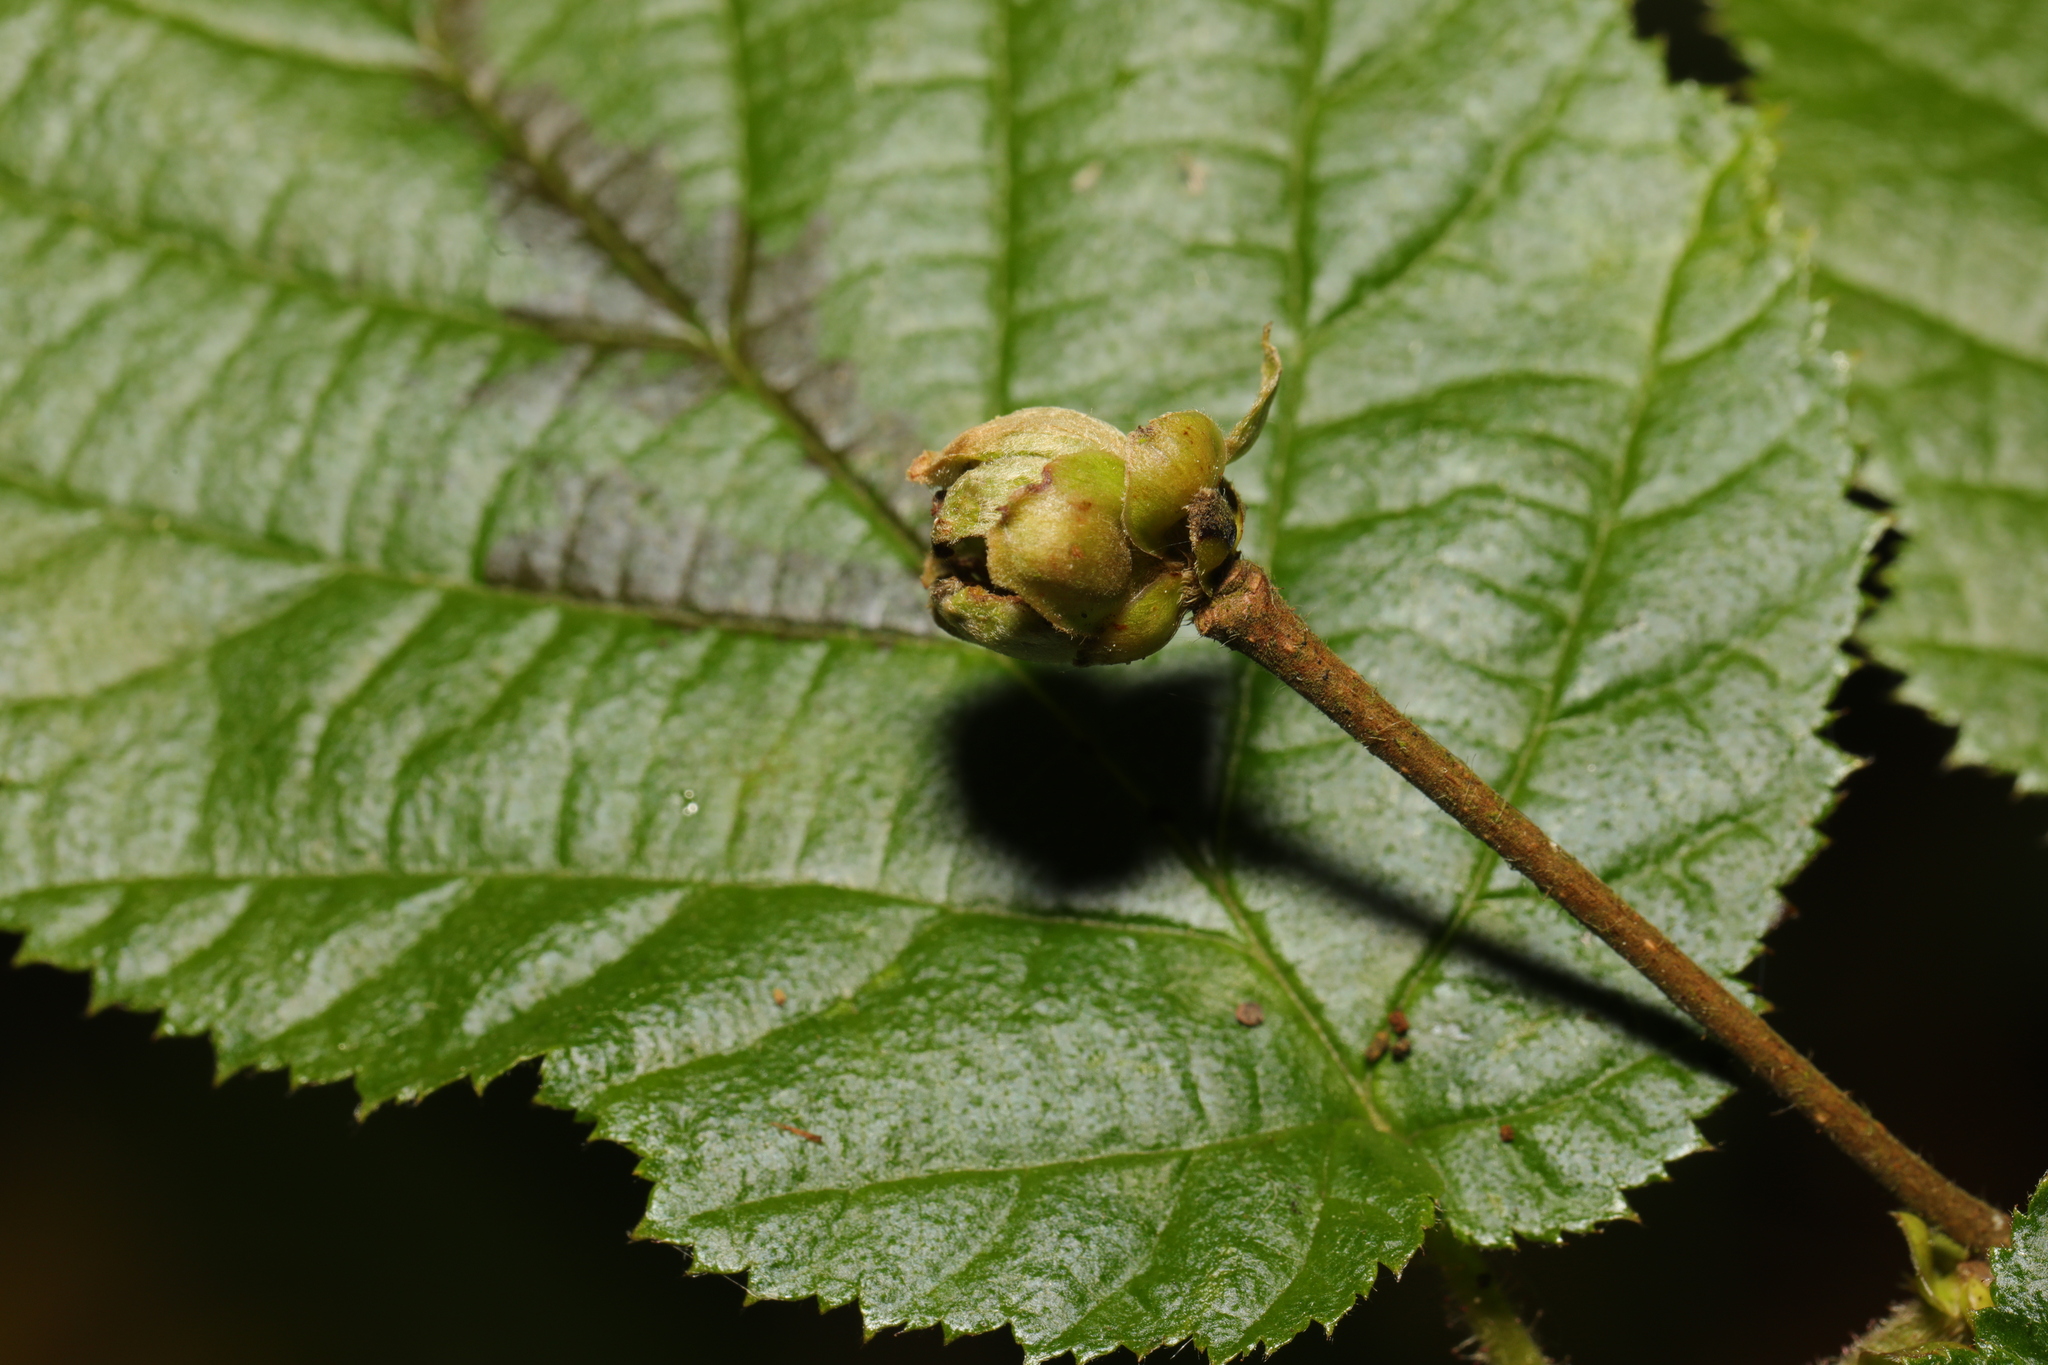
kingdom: Animalia
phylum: Arthropoda
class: Arachnida
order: Trombidiformes
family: Phytoptidae
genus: Phytoptus
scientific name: Phytoptus avellanae
